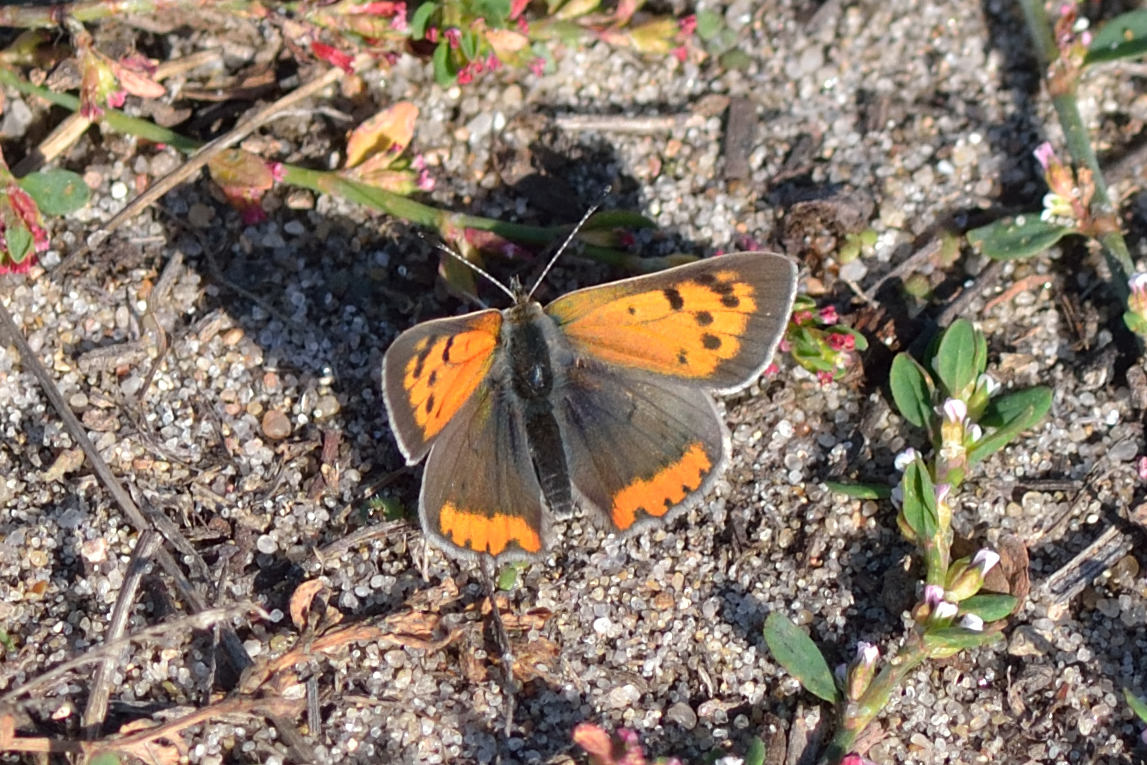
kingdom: Animalia
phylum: Arthropoda
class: Insecta
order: Lepidoptera
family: Lycaenidae
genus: Lycaena
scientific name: Lycaena phlaeas
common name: Small copper
